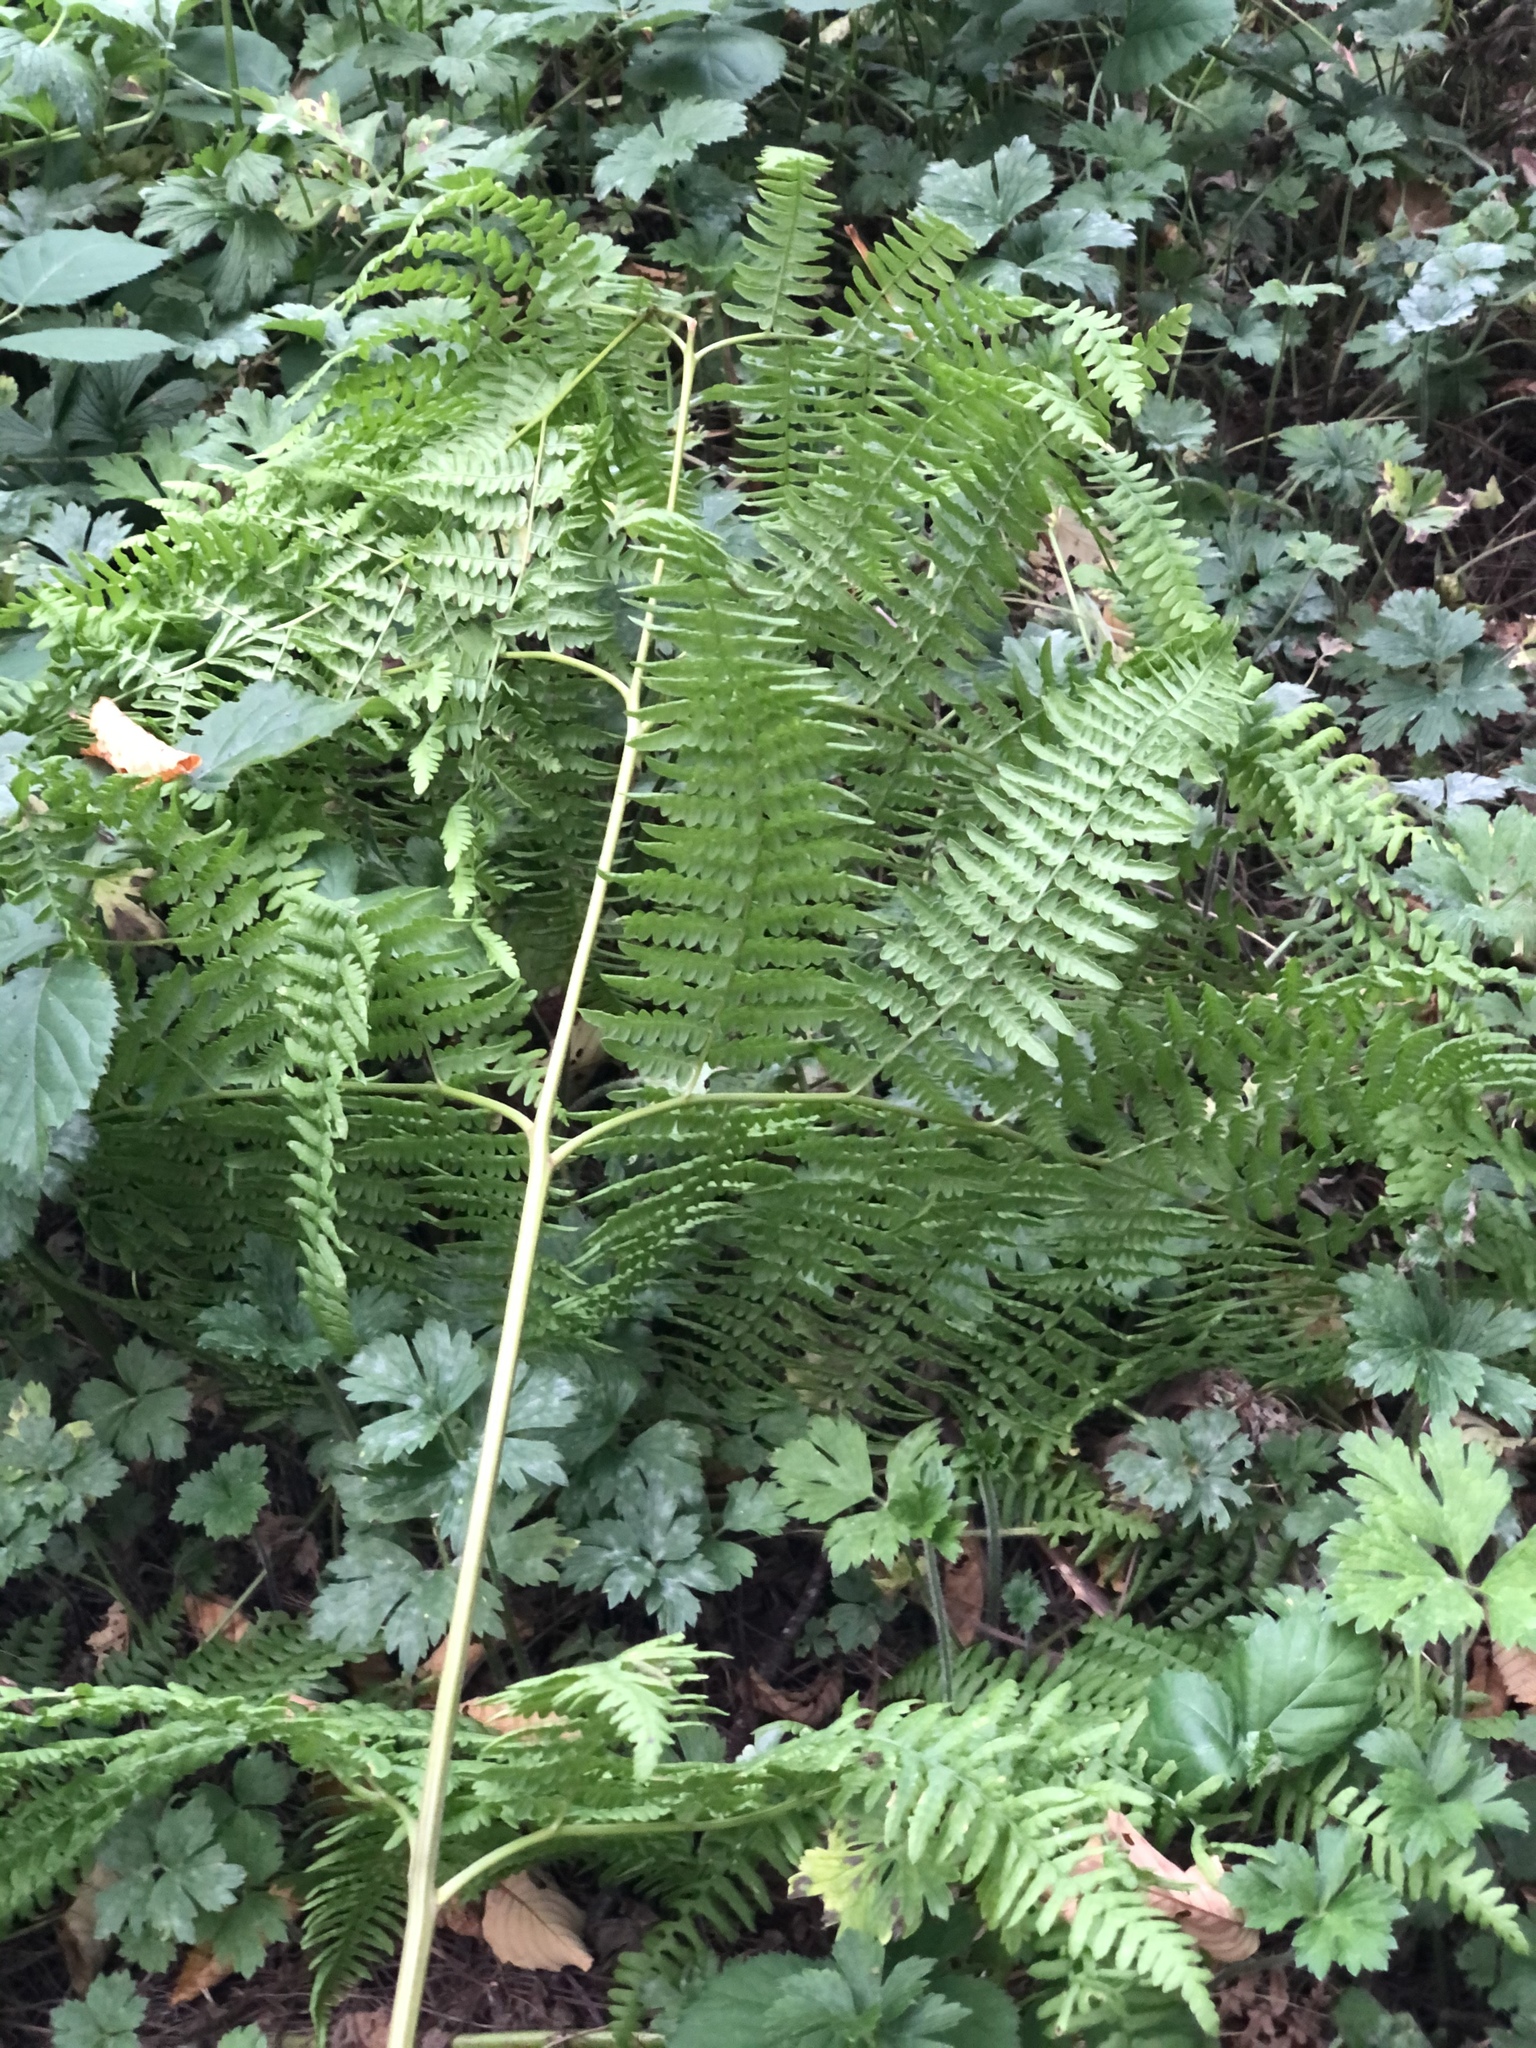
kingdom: Plantae
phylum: Tracheophyta
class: Polypodiopsida
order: Polypodiales
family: Dennstaedtiaceae
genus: Pteridium
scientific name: Pteridium aquilinum
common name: Bracken
